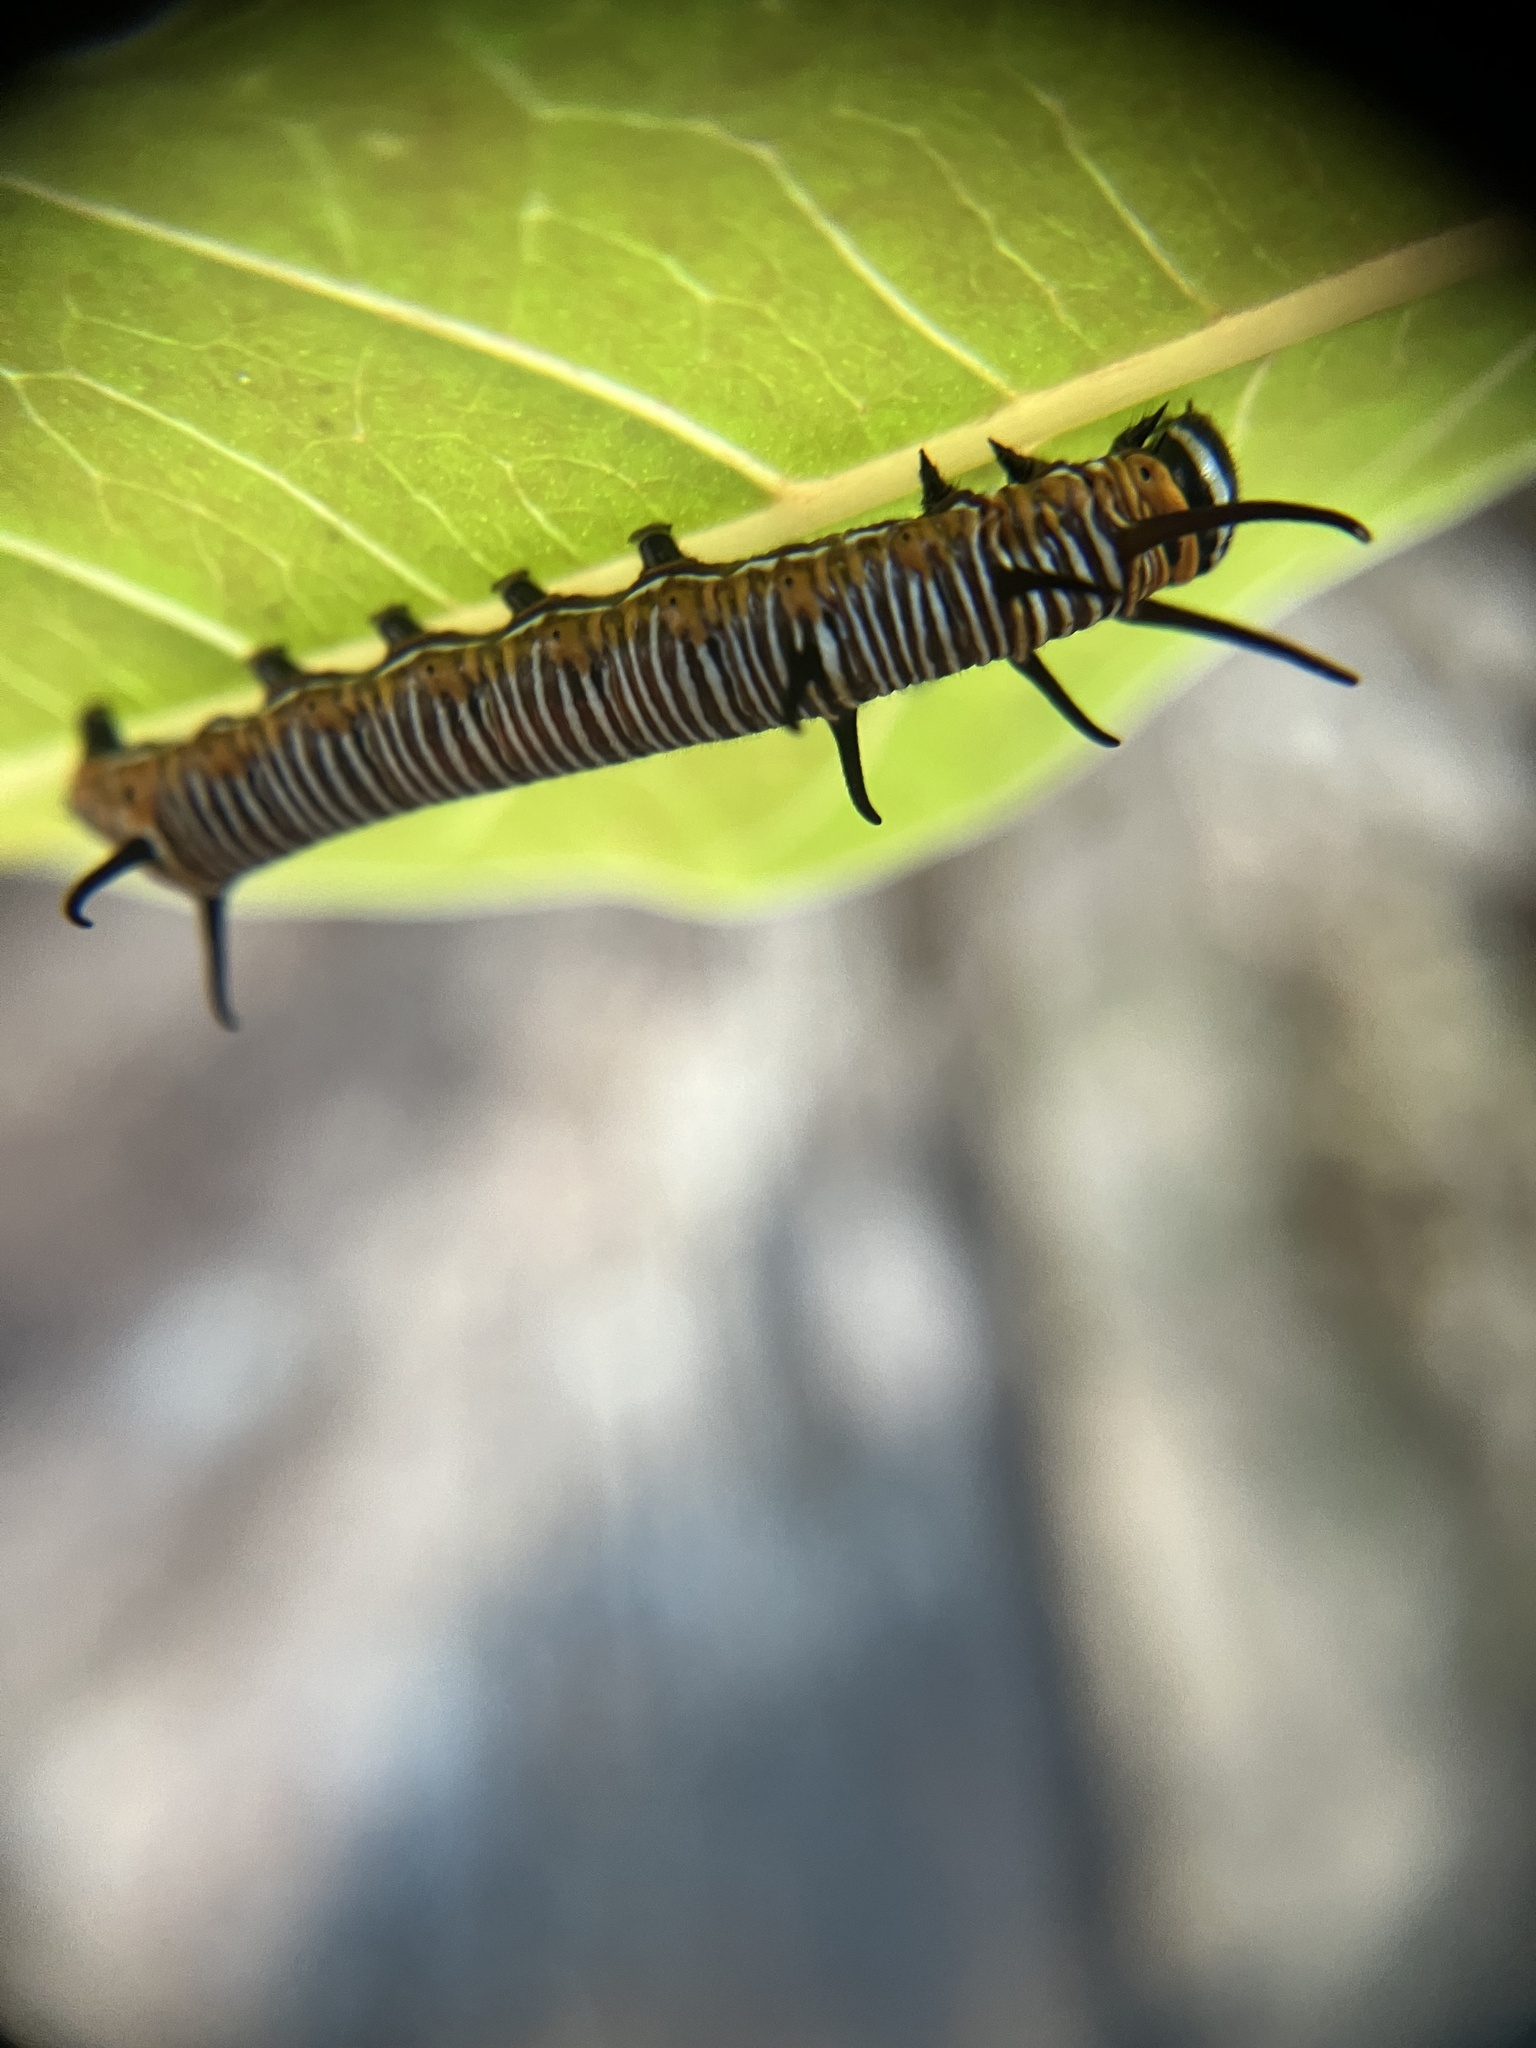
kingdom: Animalia
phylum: Arthropoda
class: Insecta
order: Lepidoptera
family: Nymphalidae
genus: Euploea
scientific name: Euploea core
